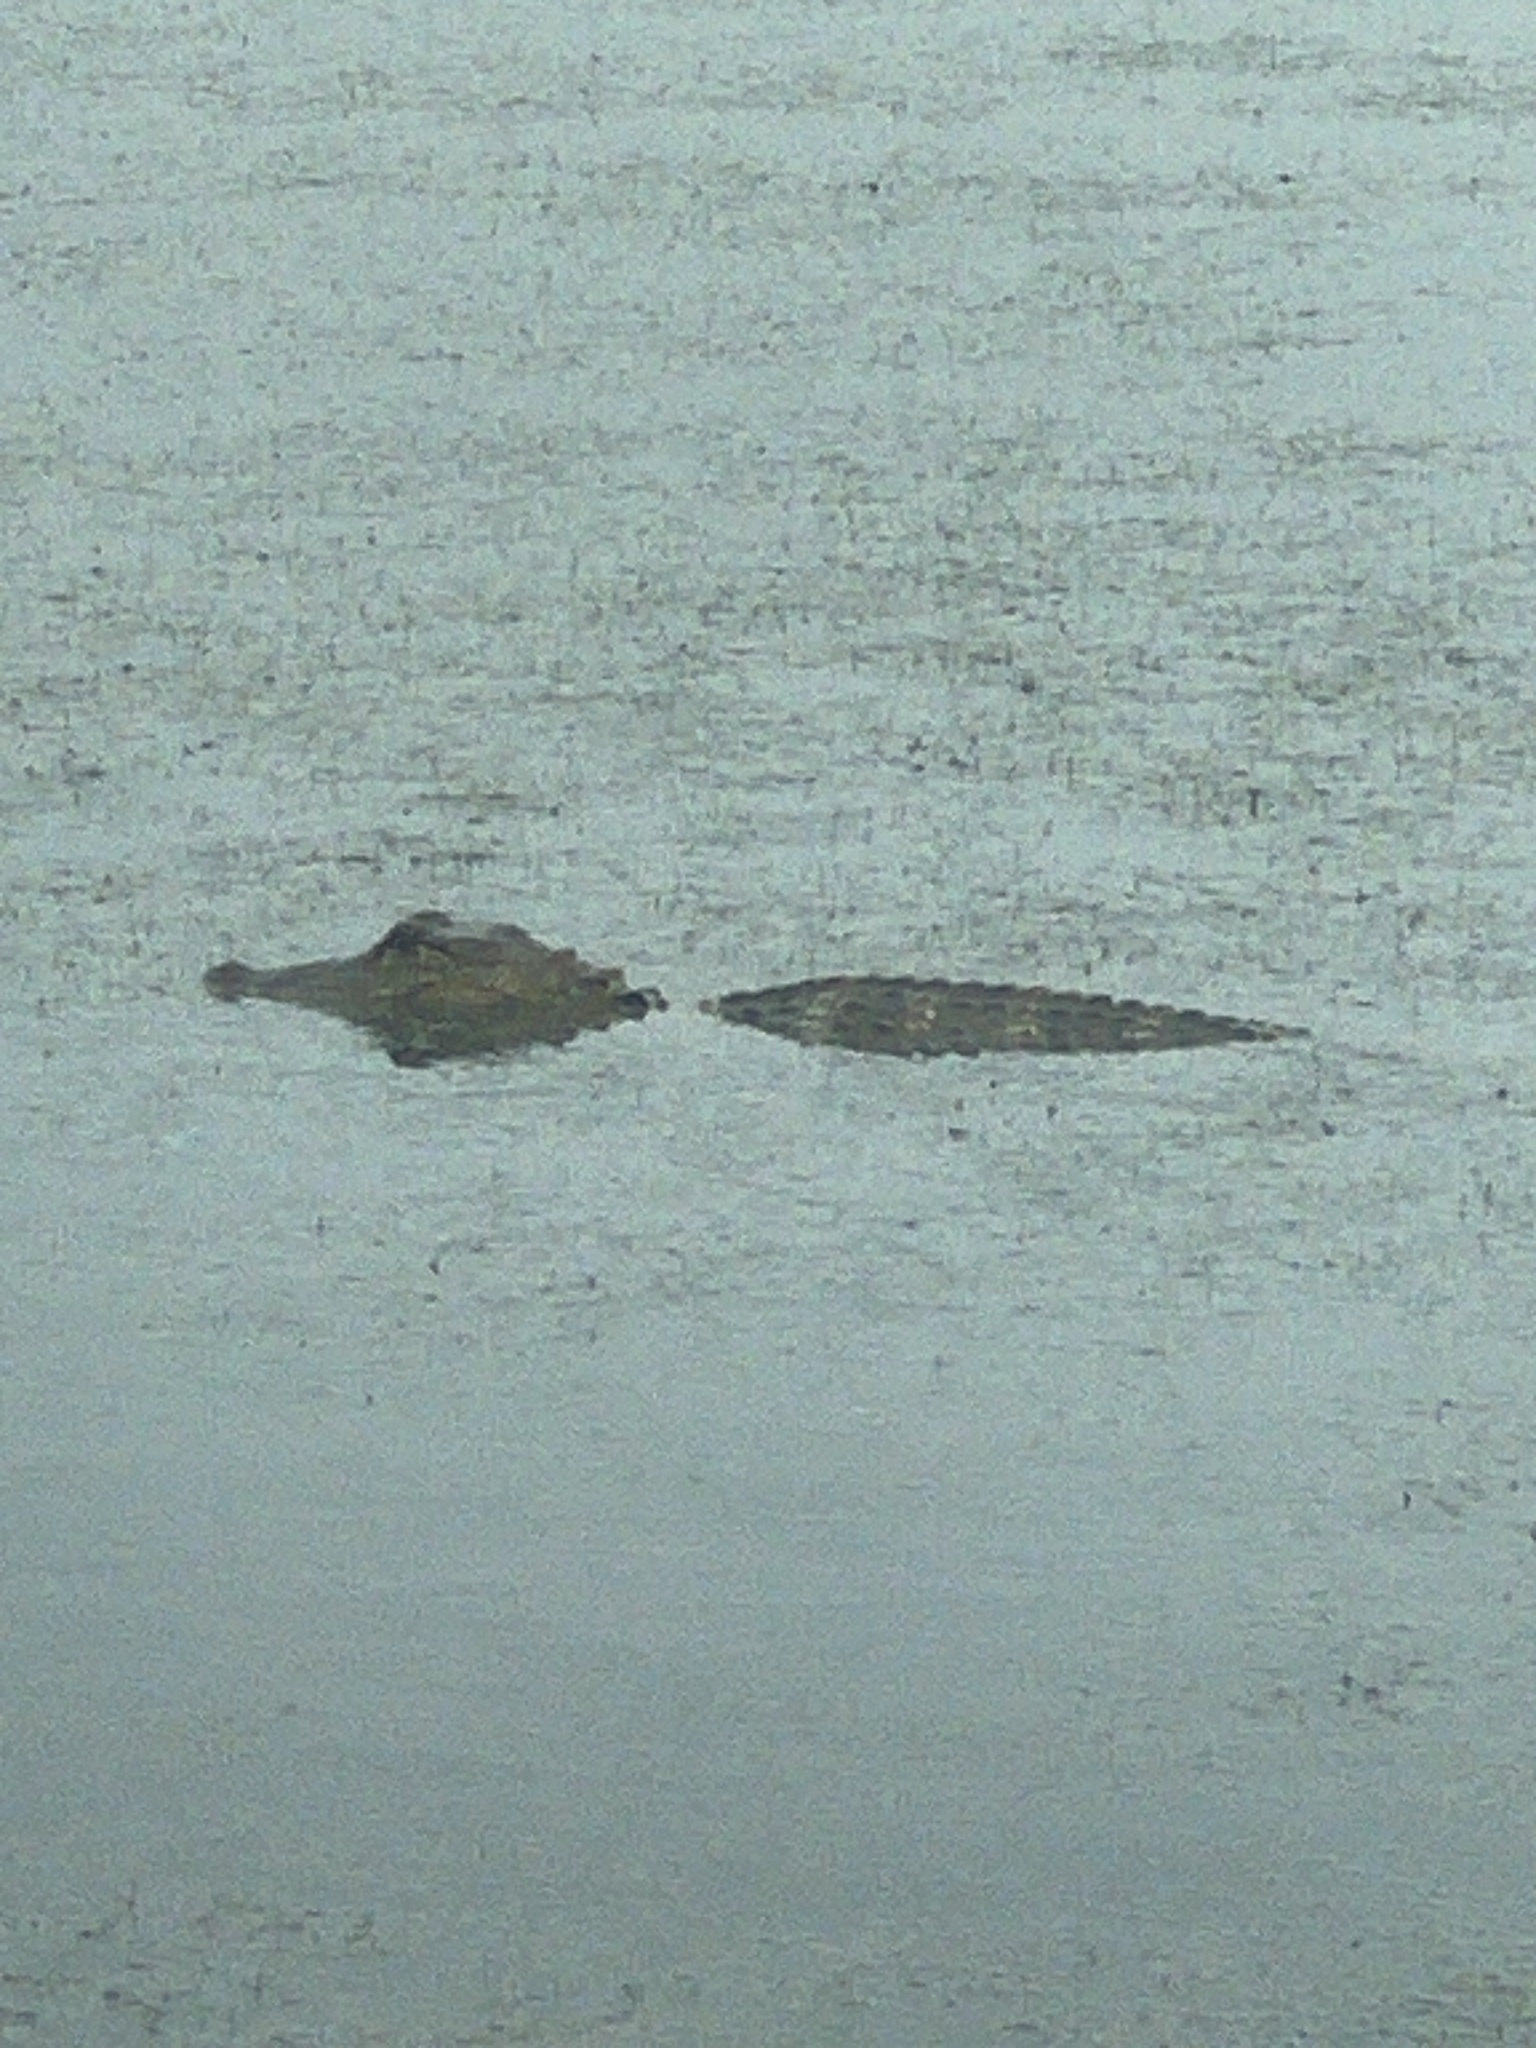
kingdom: Animalia
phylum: Chordata
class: Crocodylia
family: Alligatoridae
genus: Alligator
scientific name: Alligator mississippiensis
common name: American alligator
